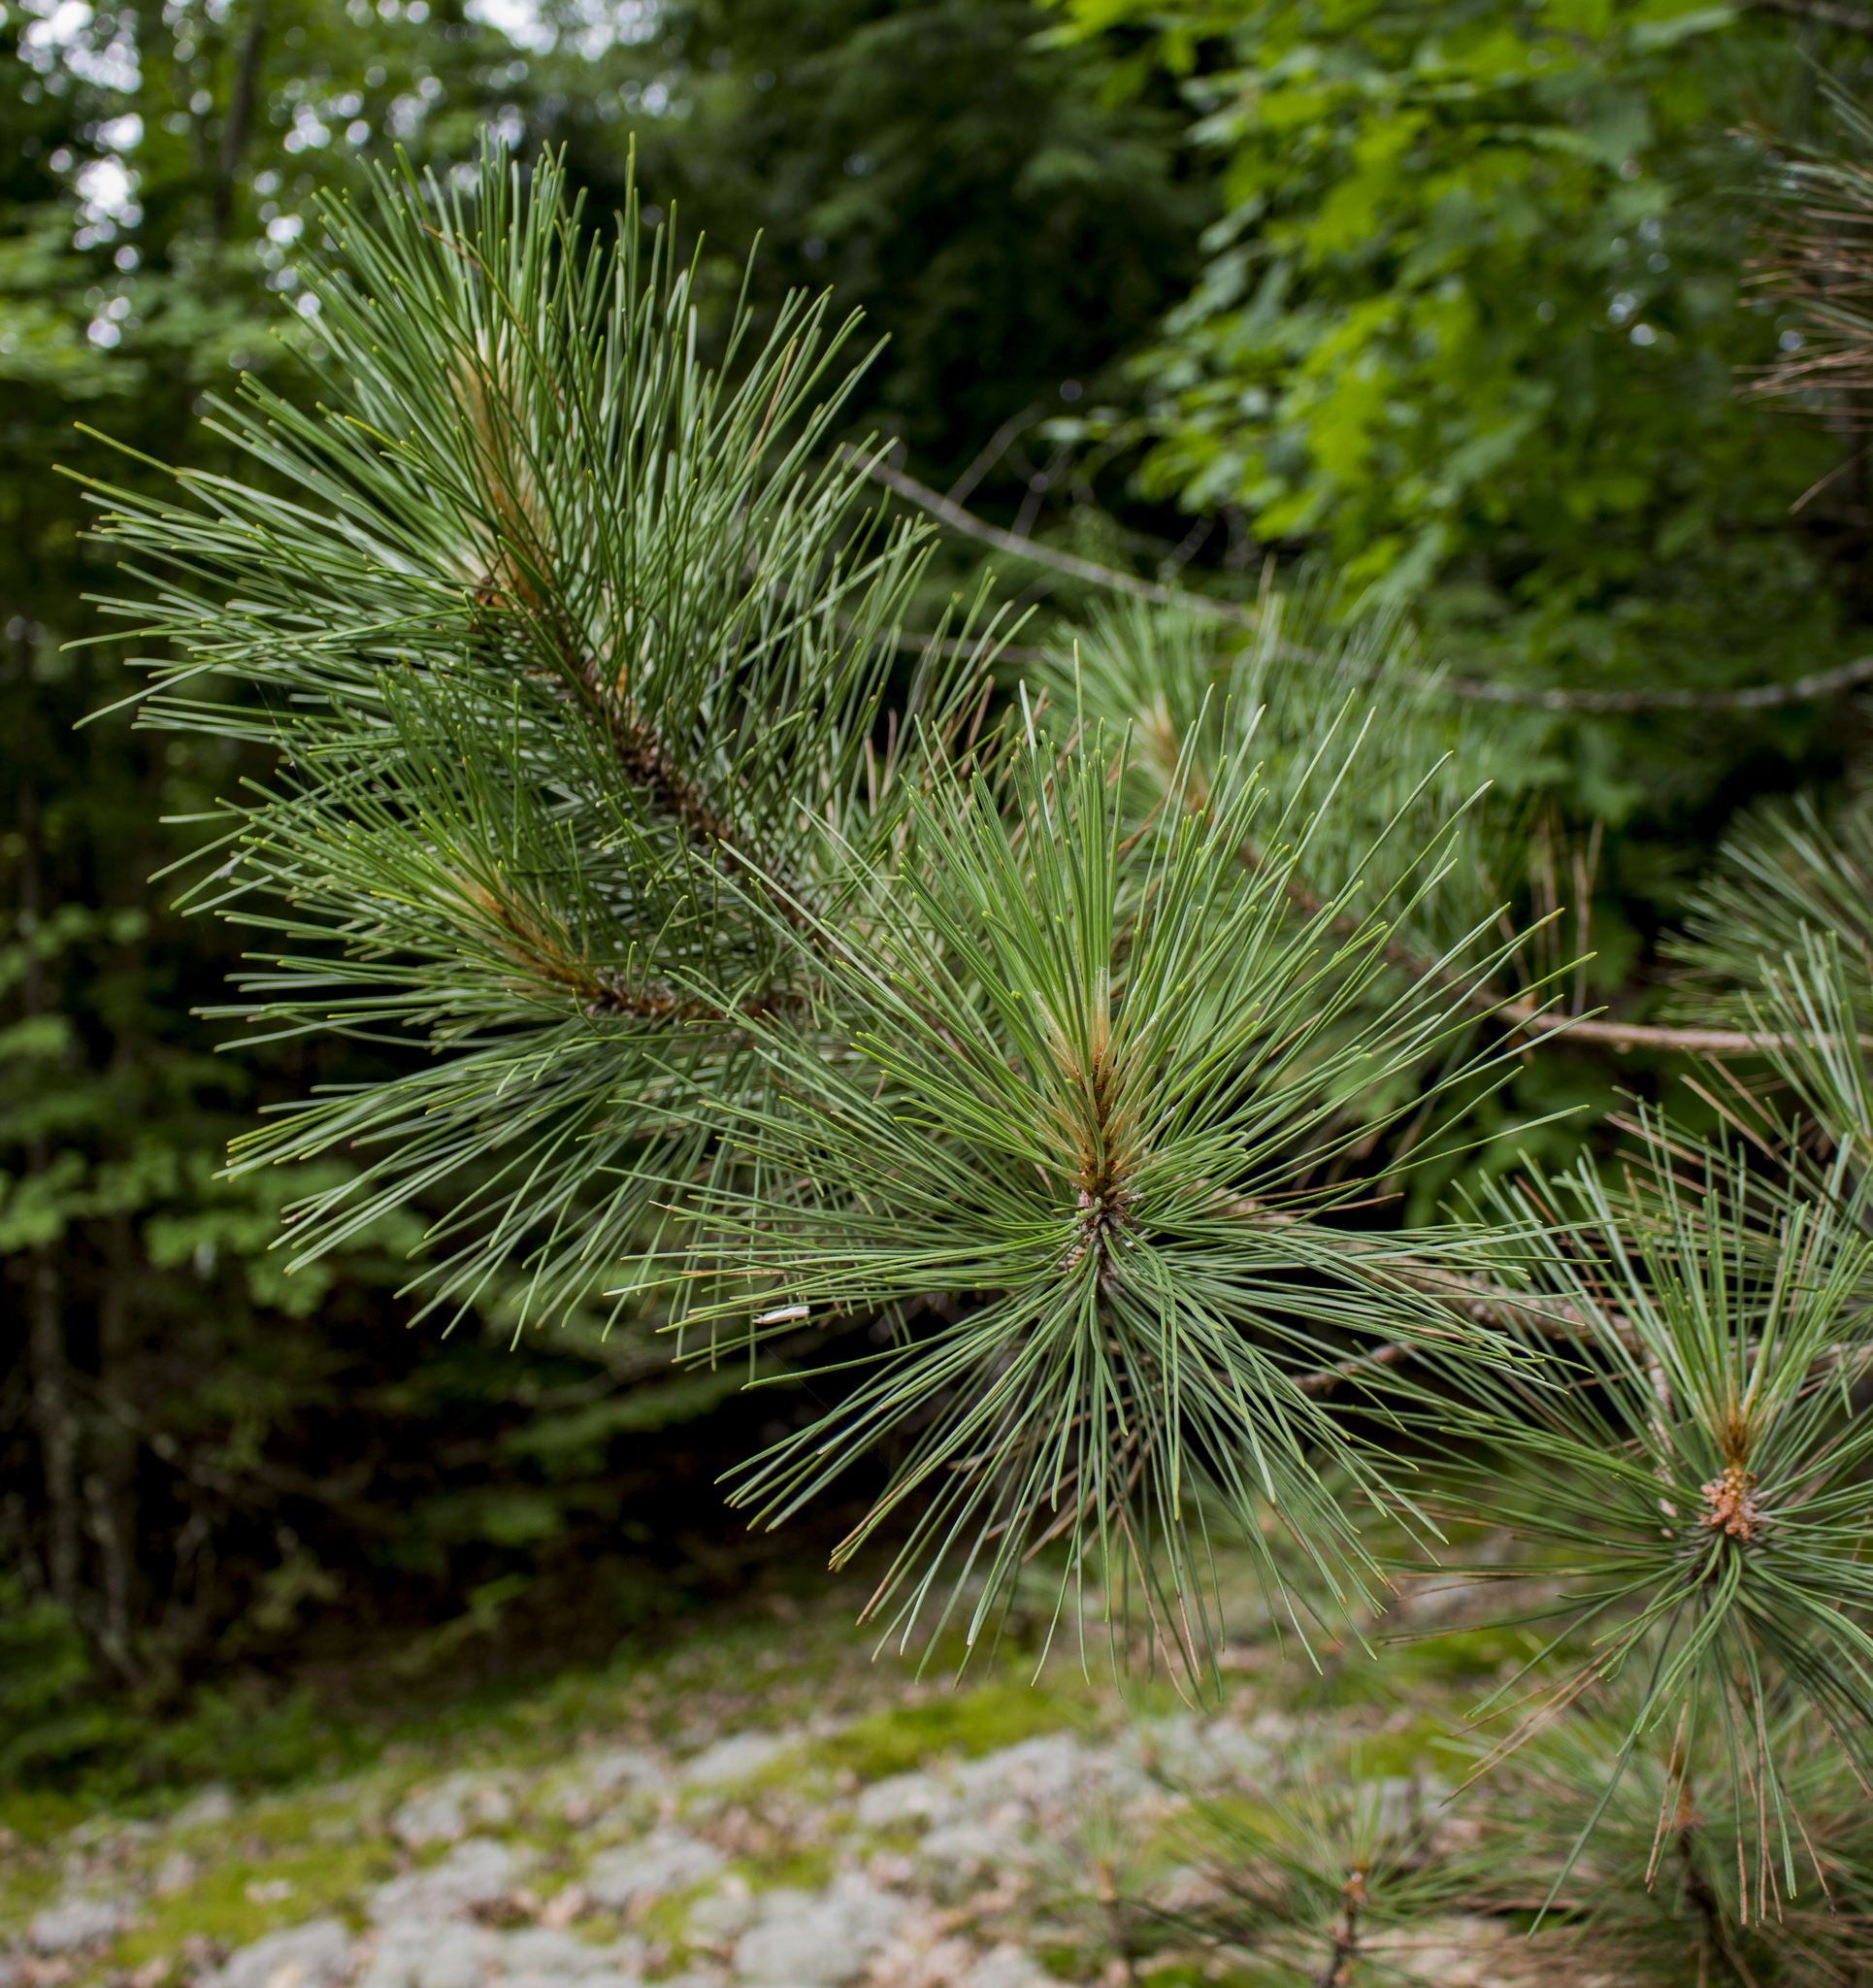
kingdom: Plantae
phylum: Tracheophyta
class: Pinopsida
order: Pinales
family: Pinaceae
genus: Pinus
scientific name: Pinus resinosa
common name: Norway pine
